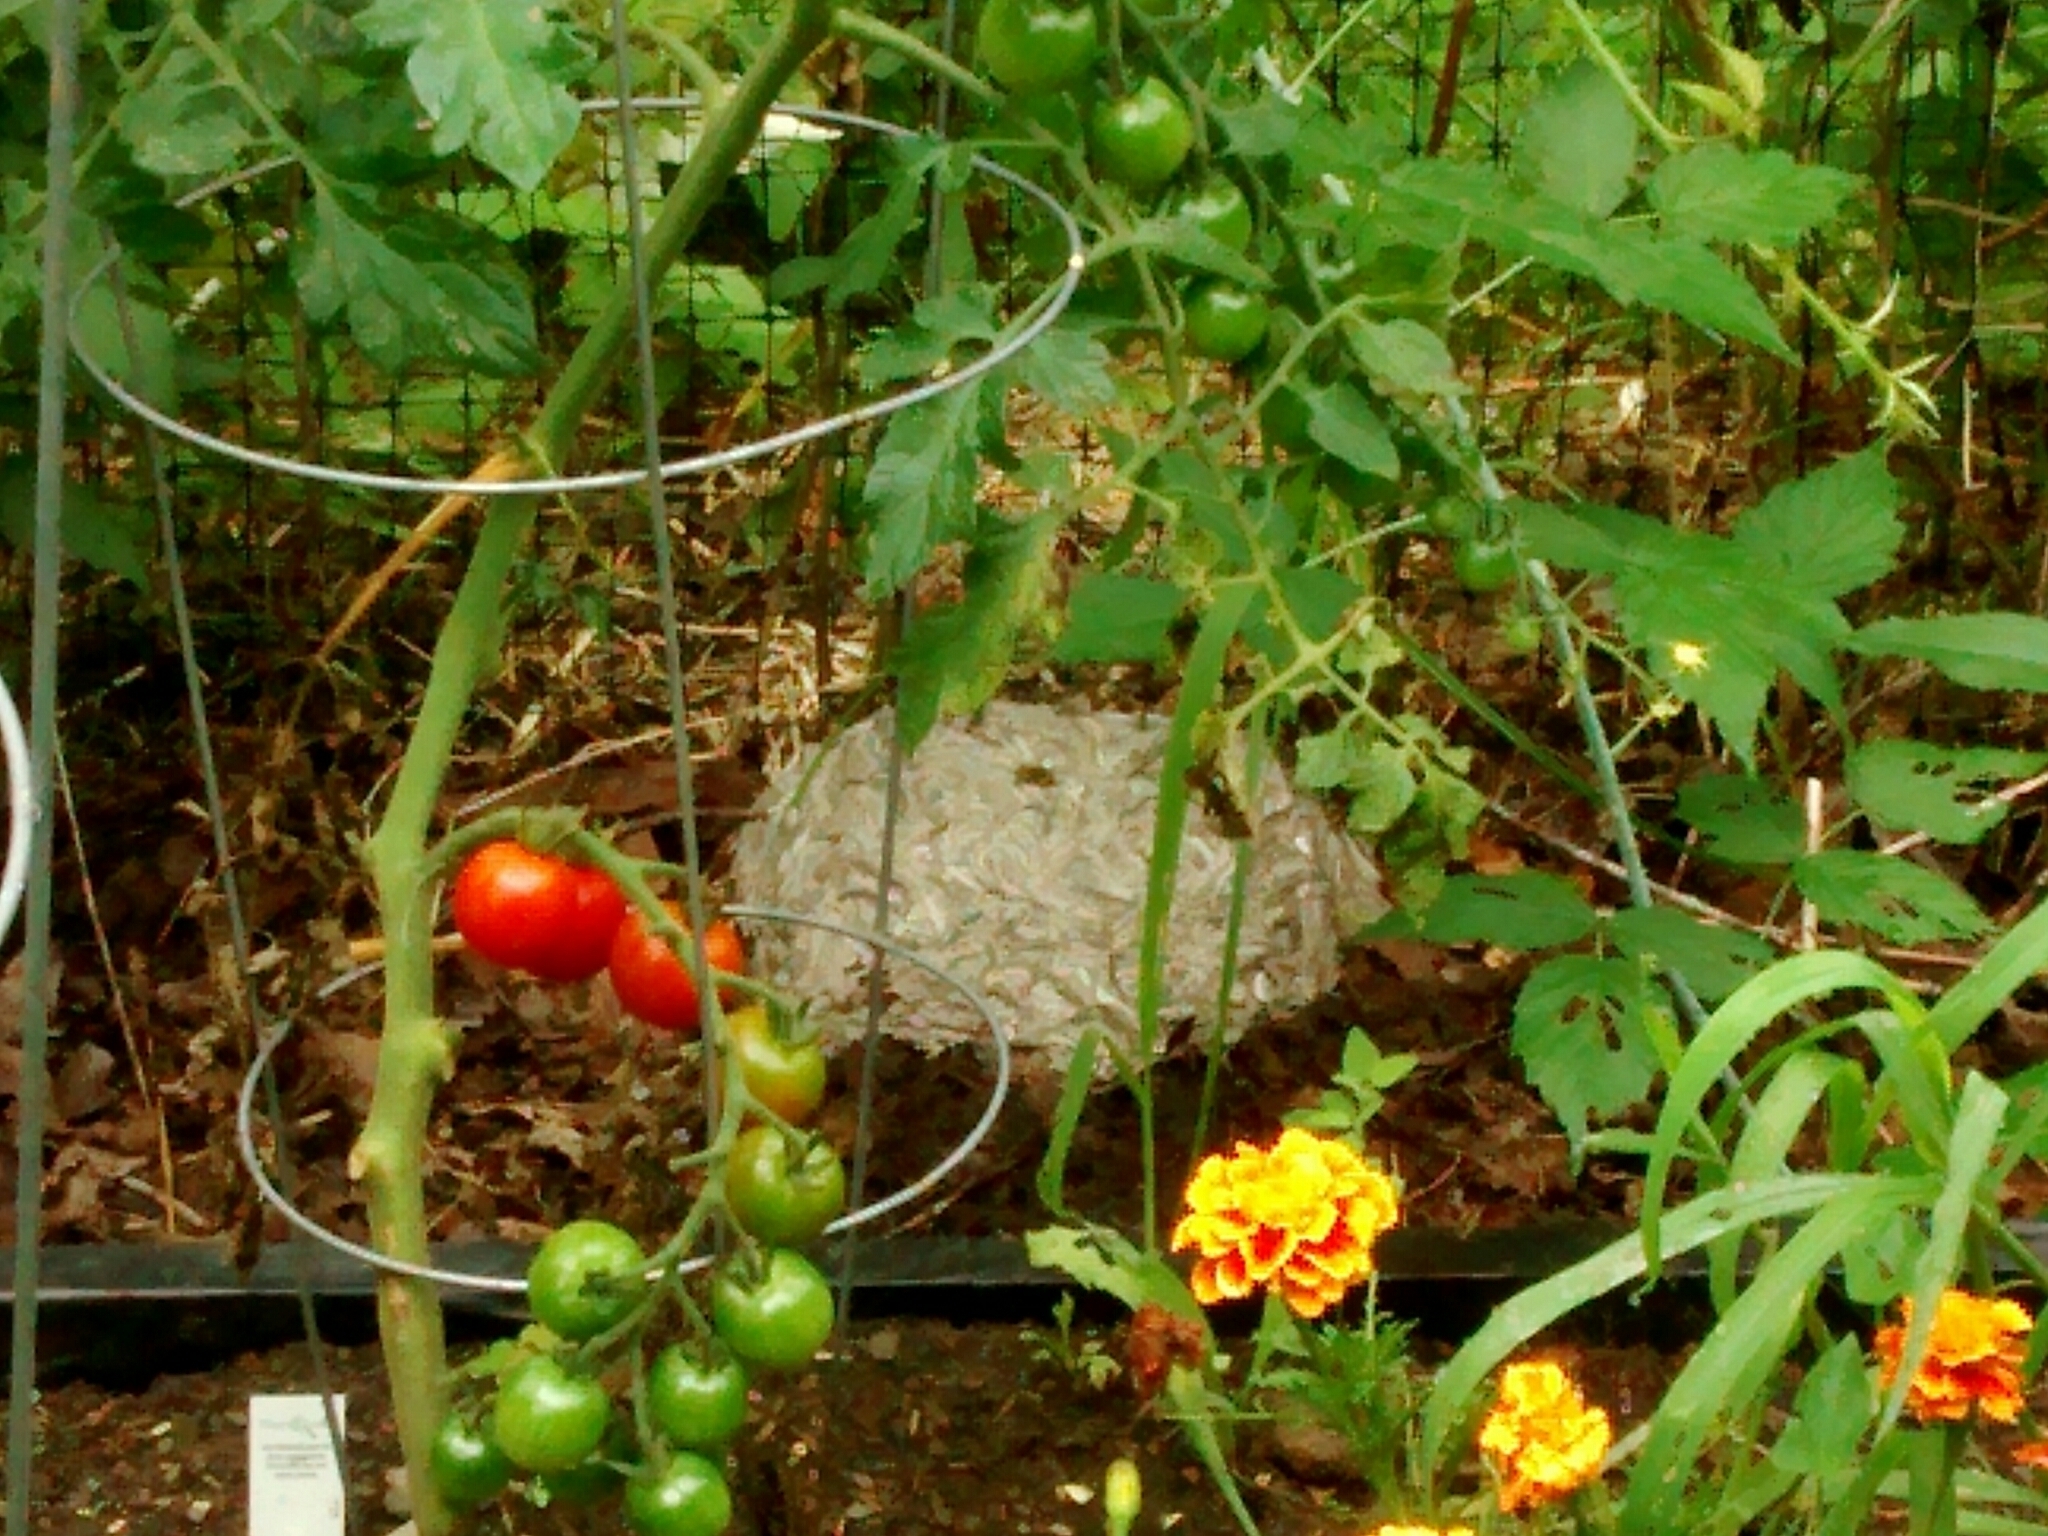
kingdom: Animalia
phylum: Arthropoda
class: Insecta
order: Hymenoptera
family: Vespidae
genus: Vespula
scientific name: Vespula
